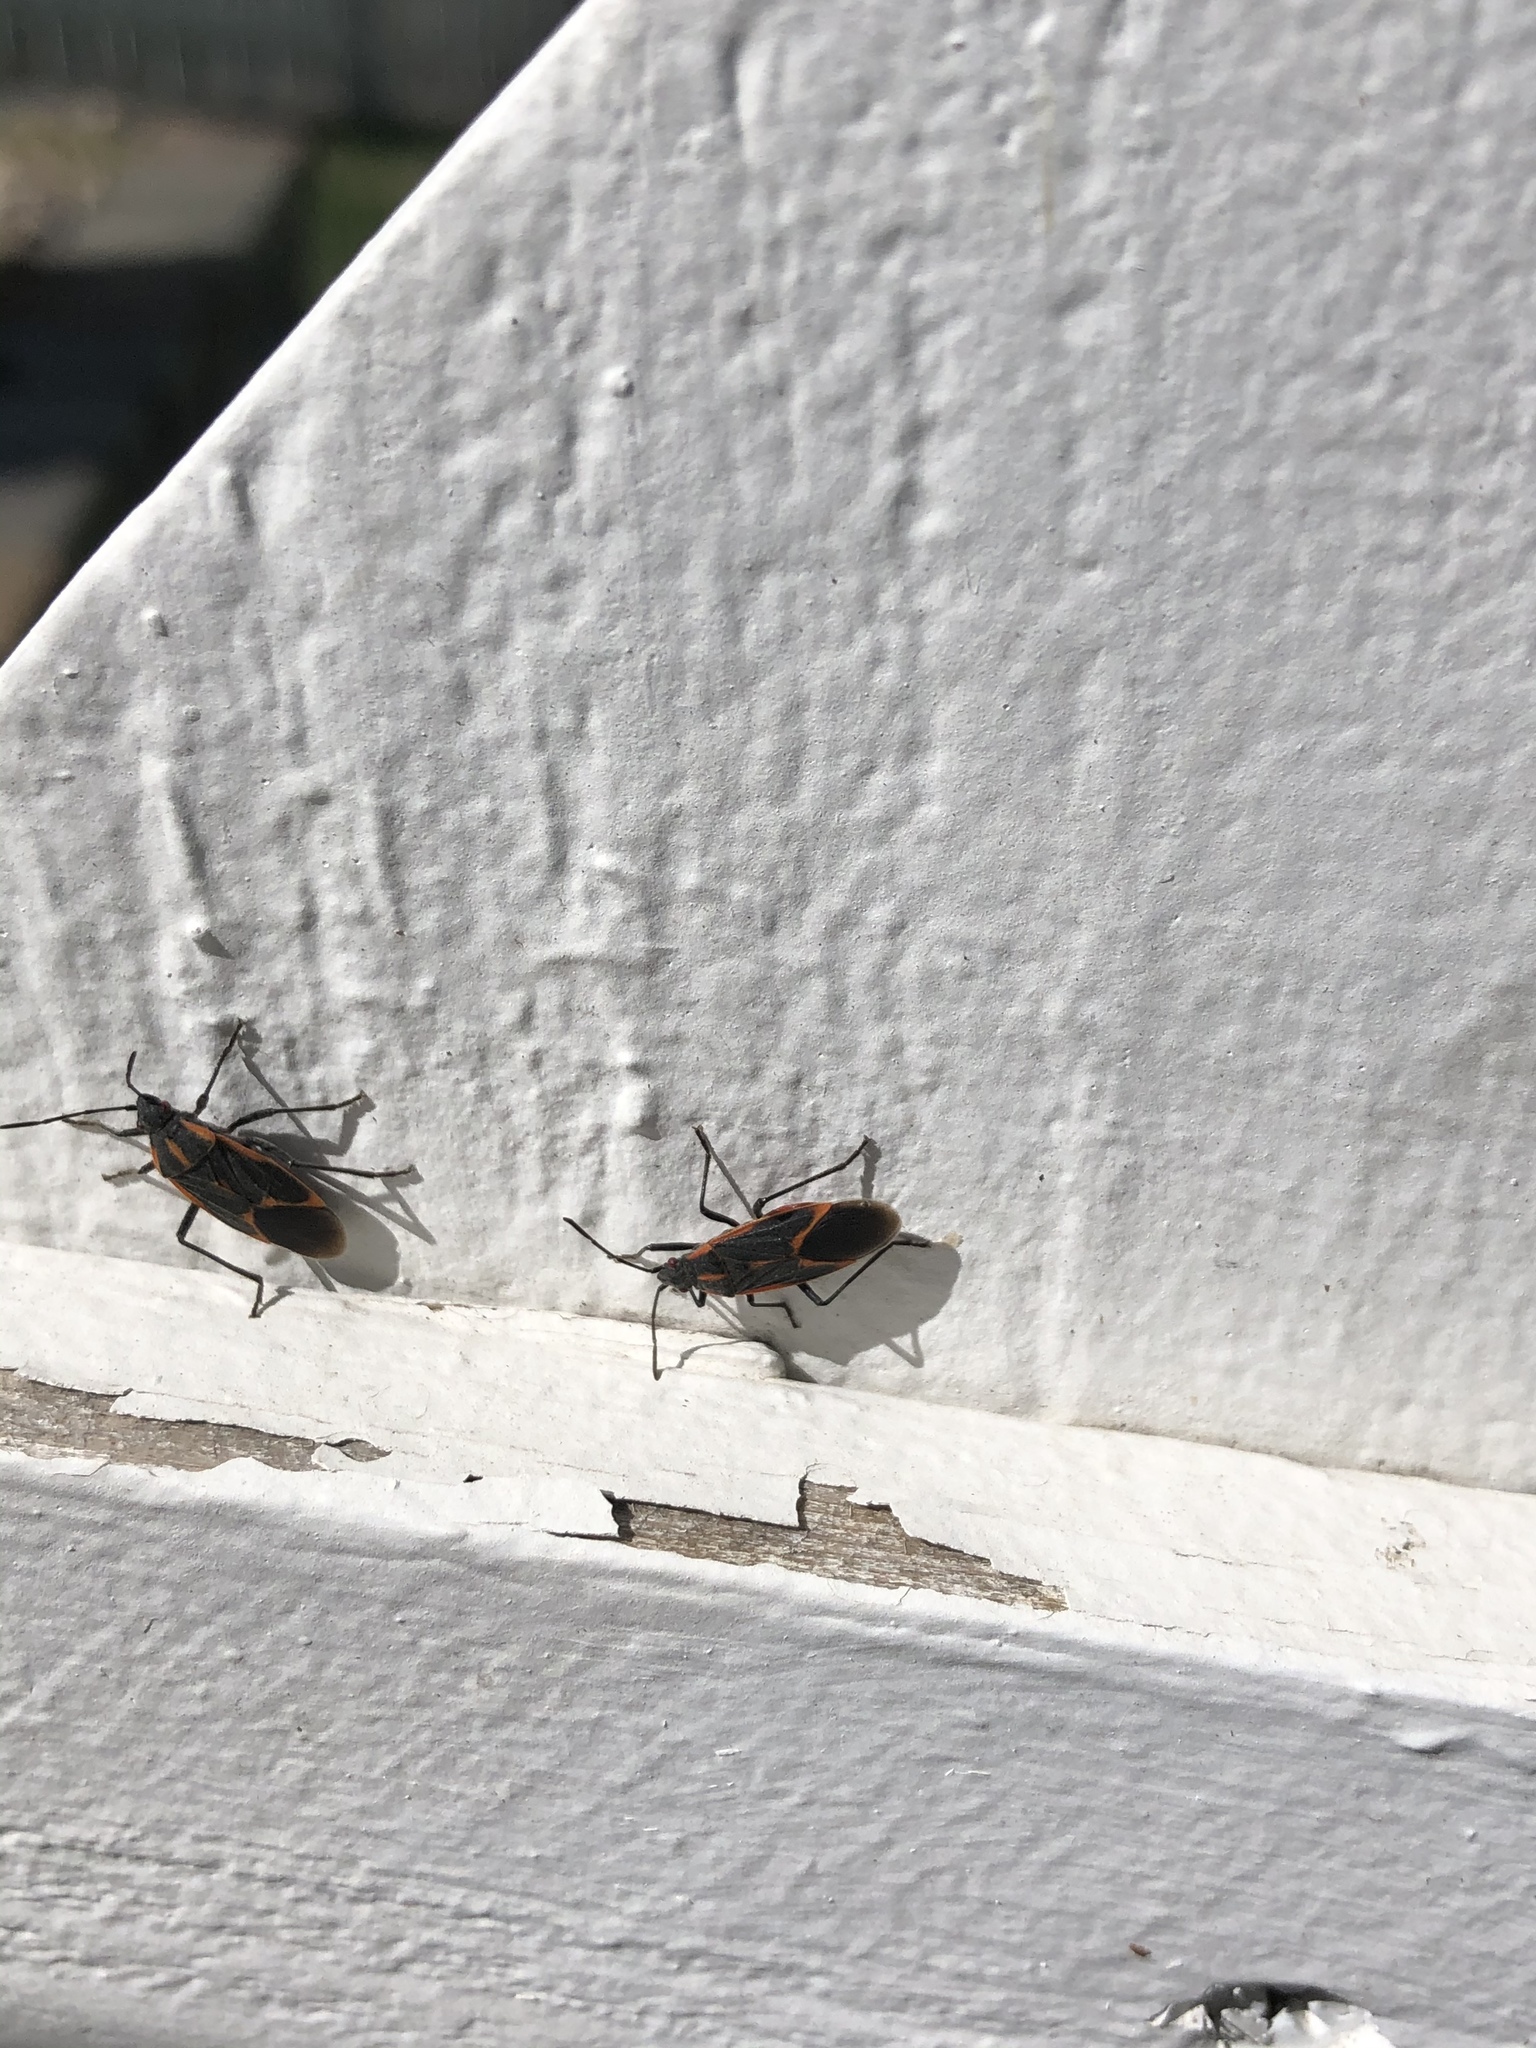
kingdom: Animalia
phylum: Arthropoda
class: Insecta
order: Hemiptera
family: Rhopalidae
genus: Boisea
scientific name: Boisea trivittata
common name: Boxelder bug
